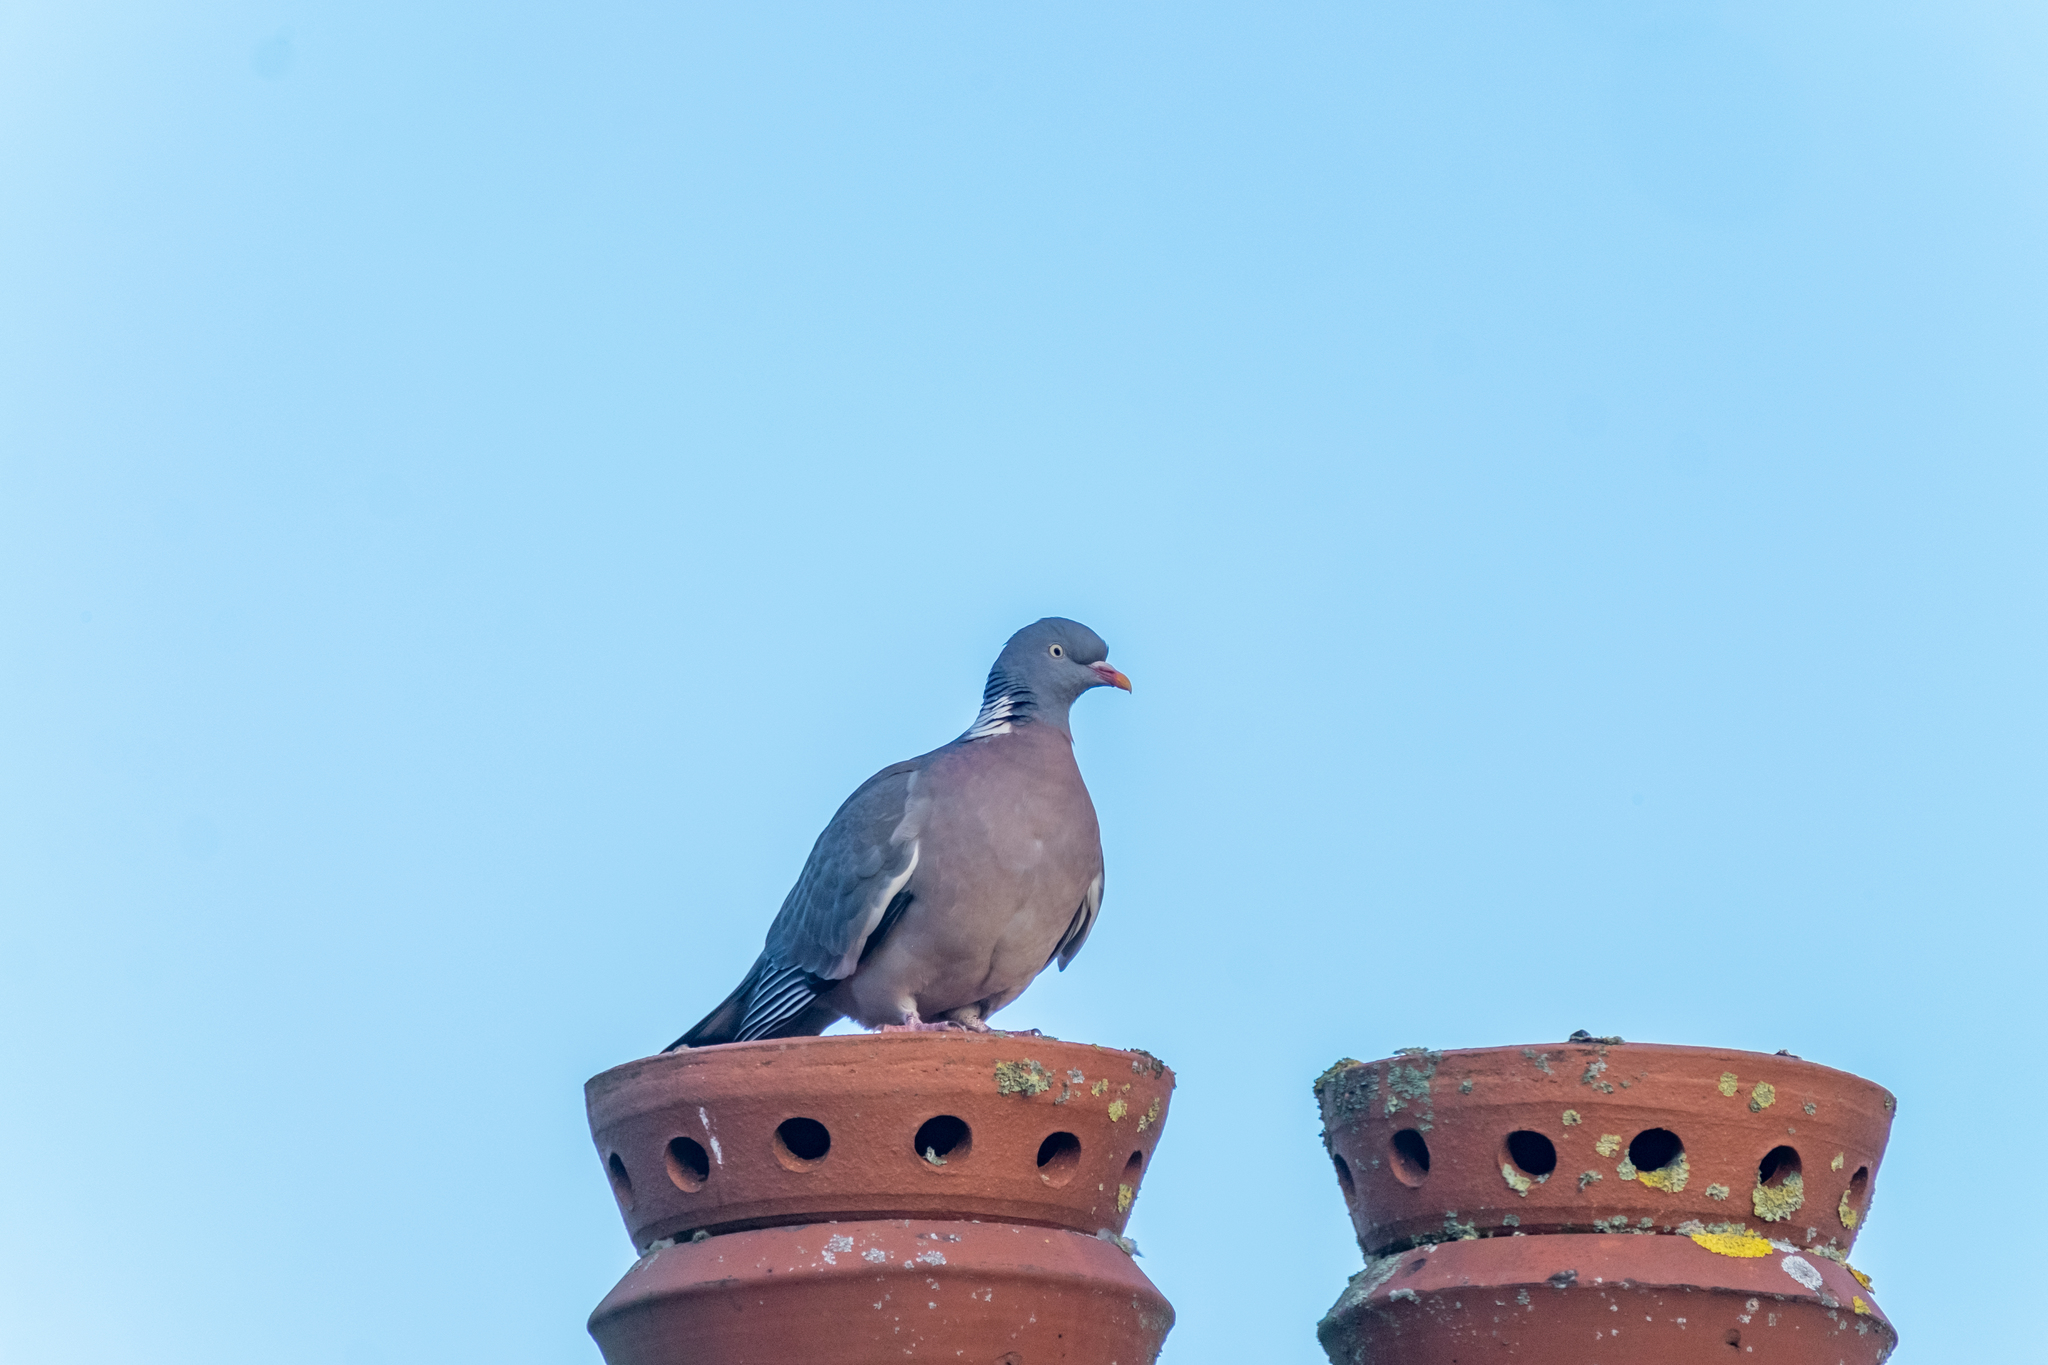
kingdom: Animalia
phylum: Chordata
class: Aves
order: Columbiformes
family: Columbidae
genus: Columba
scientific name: Columba palumbus
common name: Common wood pigeon
